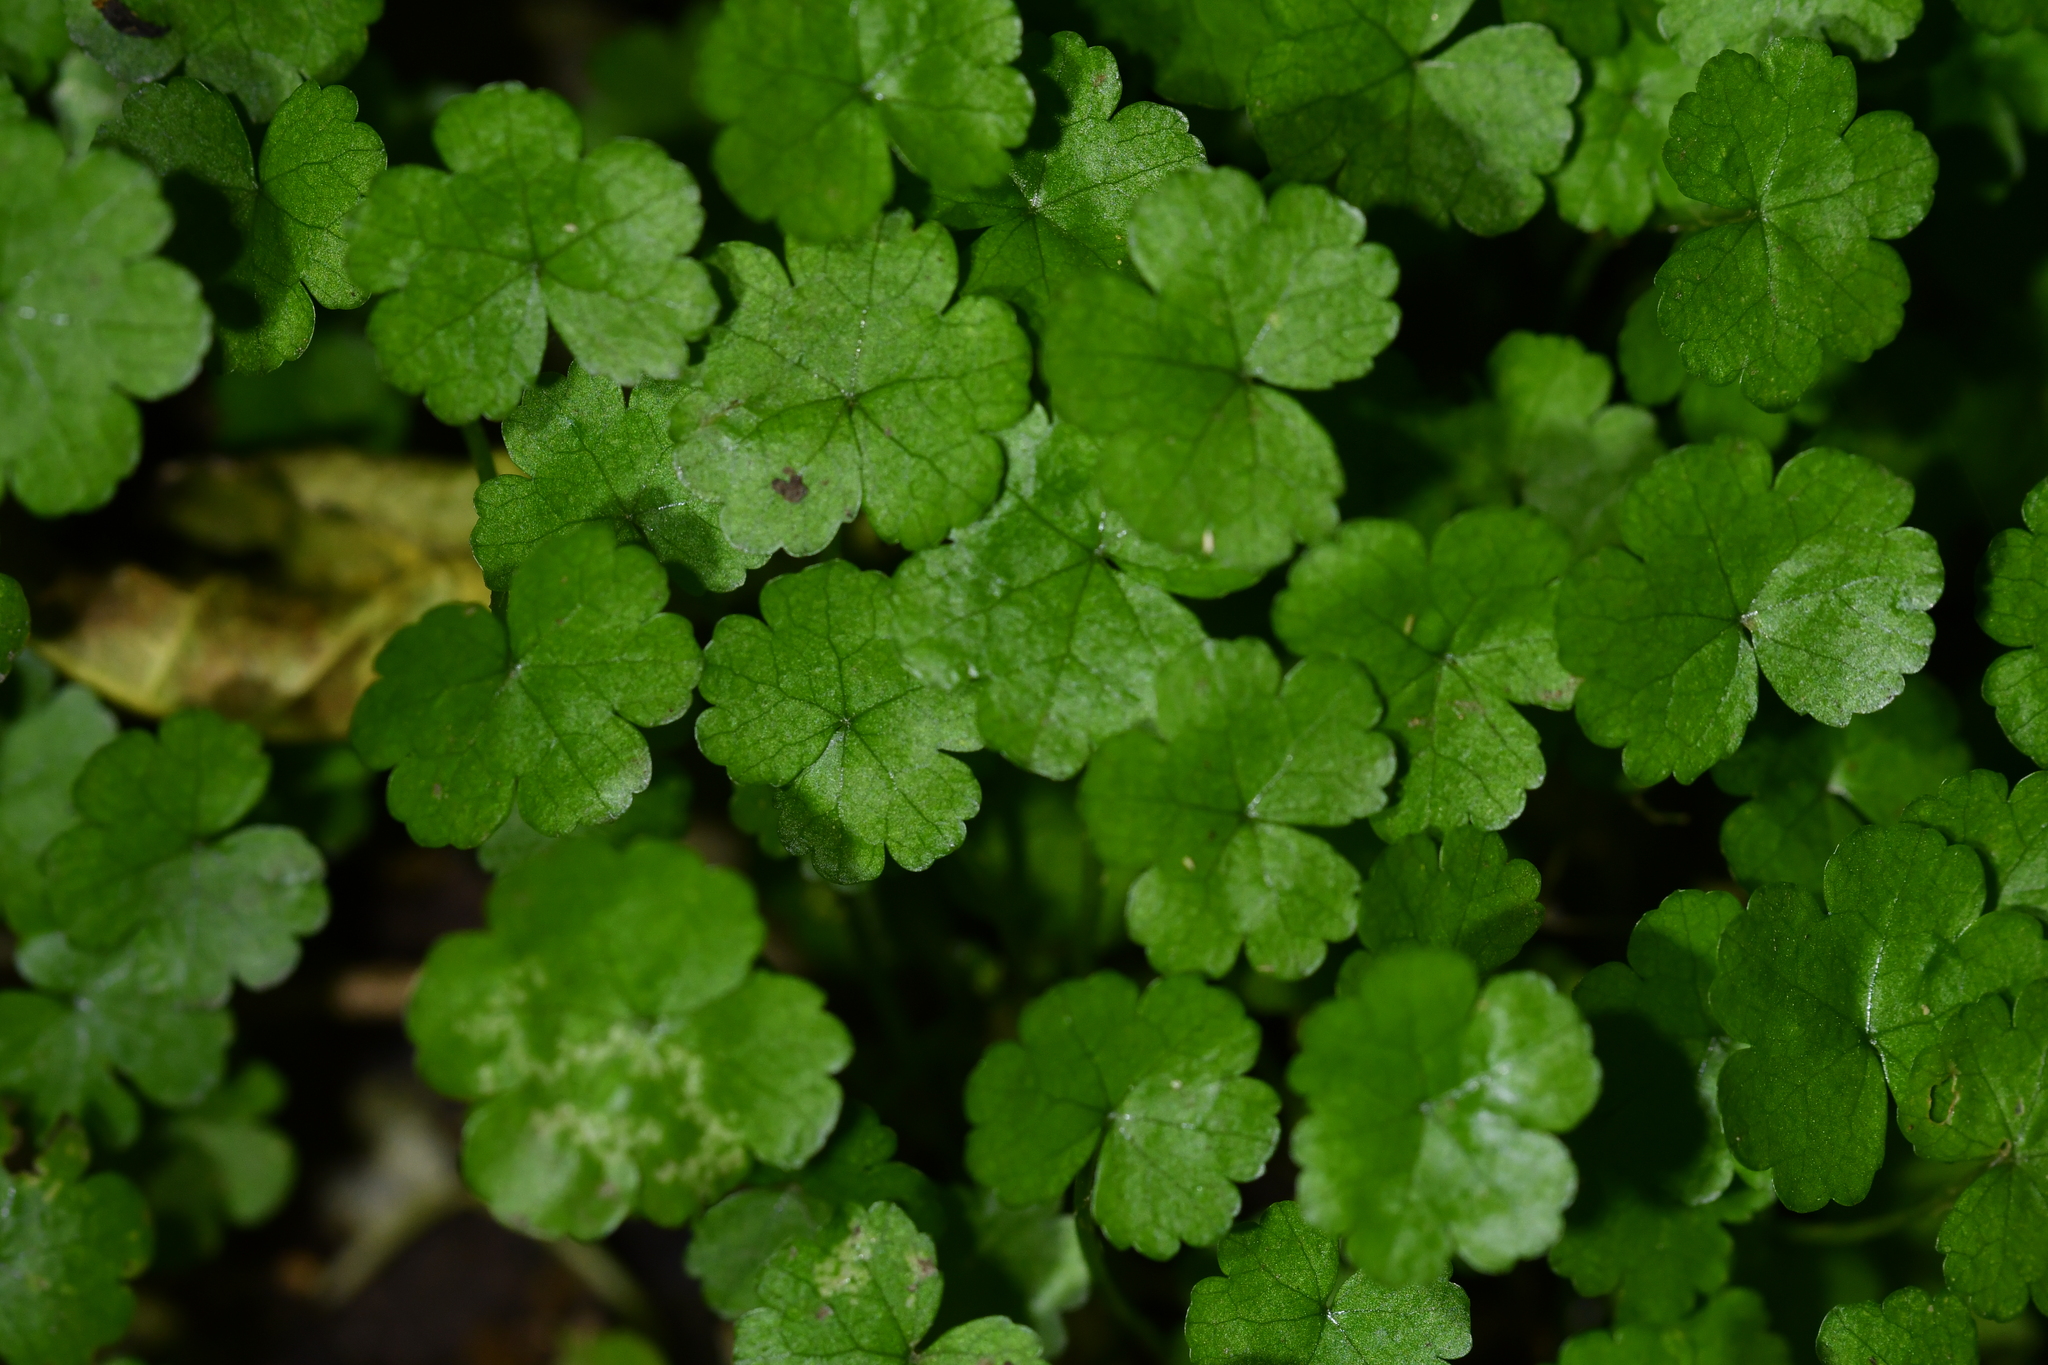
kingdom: Plantae
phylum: Tracheophyta
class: Magnoliopsida
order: Apiales
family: Araliaceae
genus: Hydrocotyle
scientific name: Hydrocotyle heteromeria
